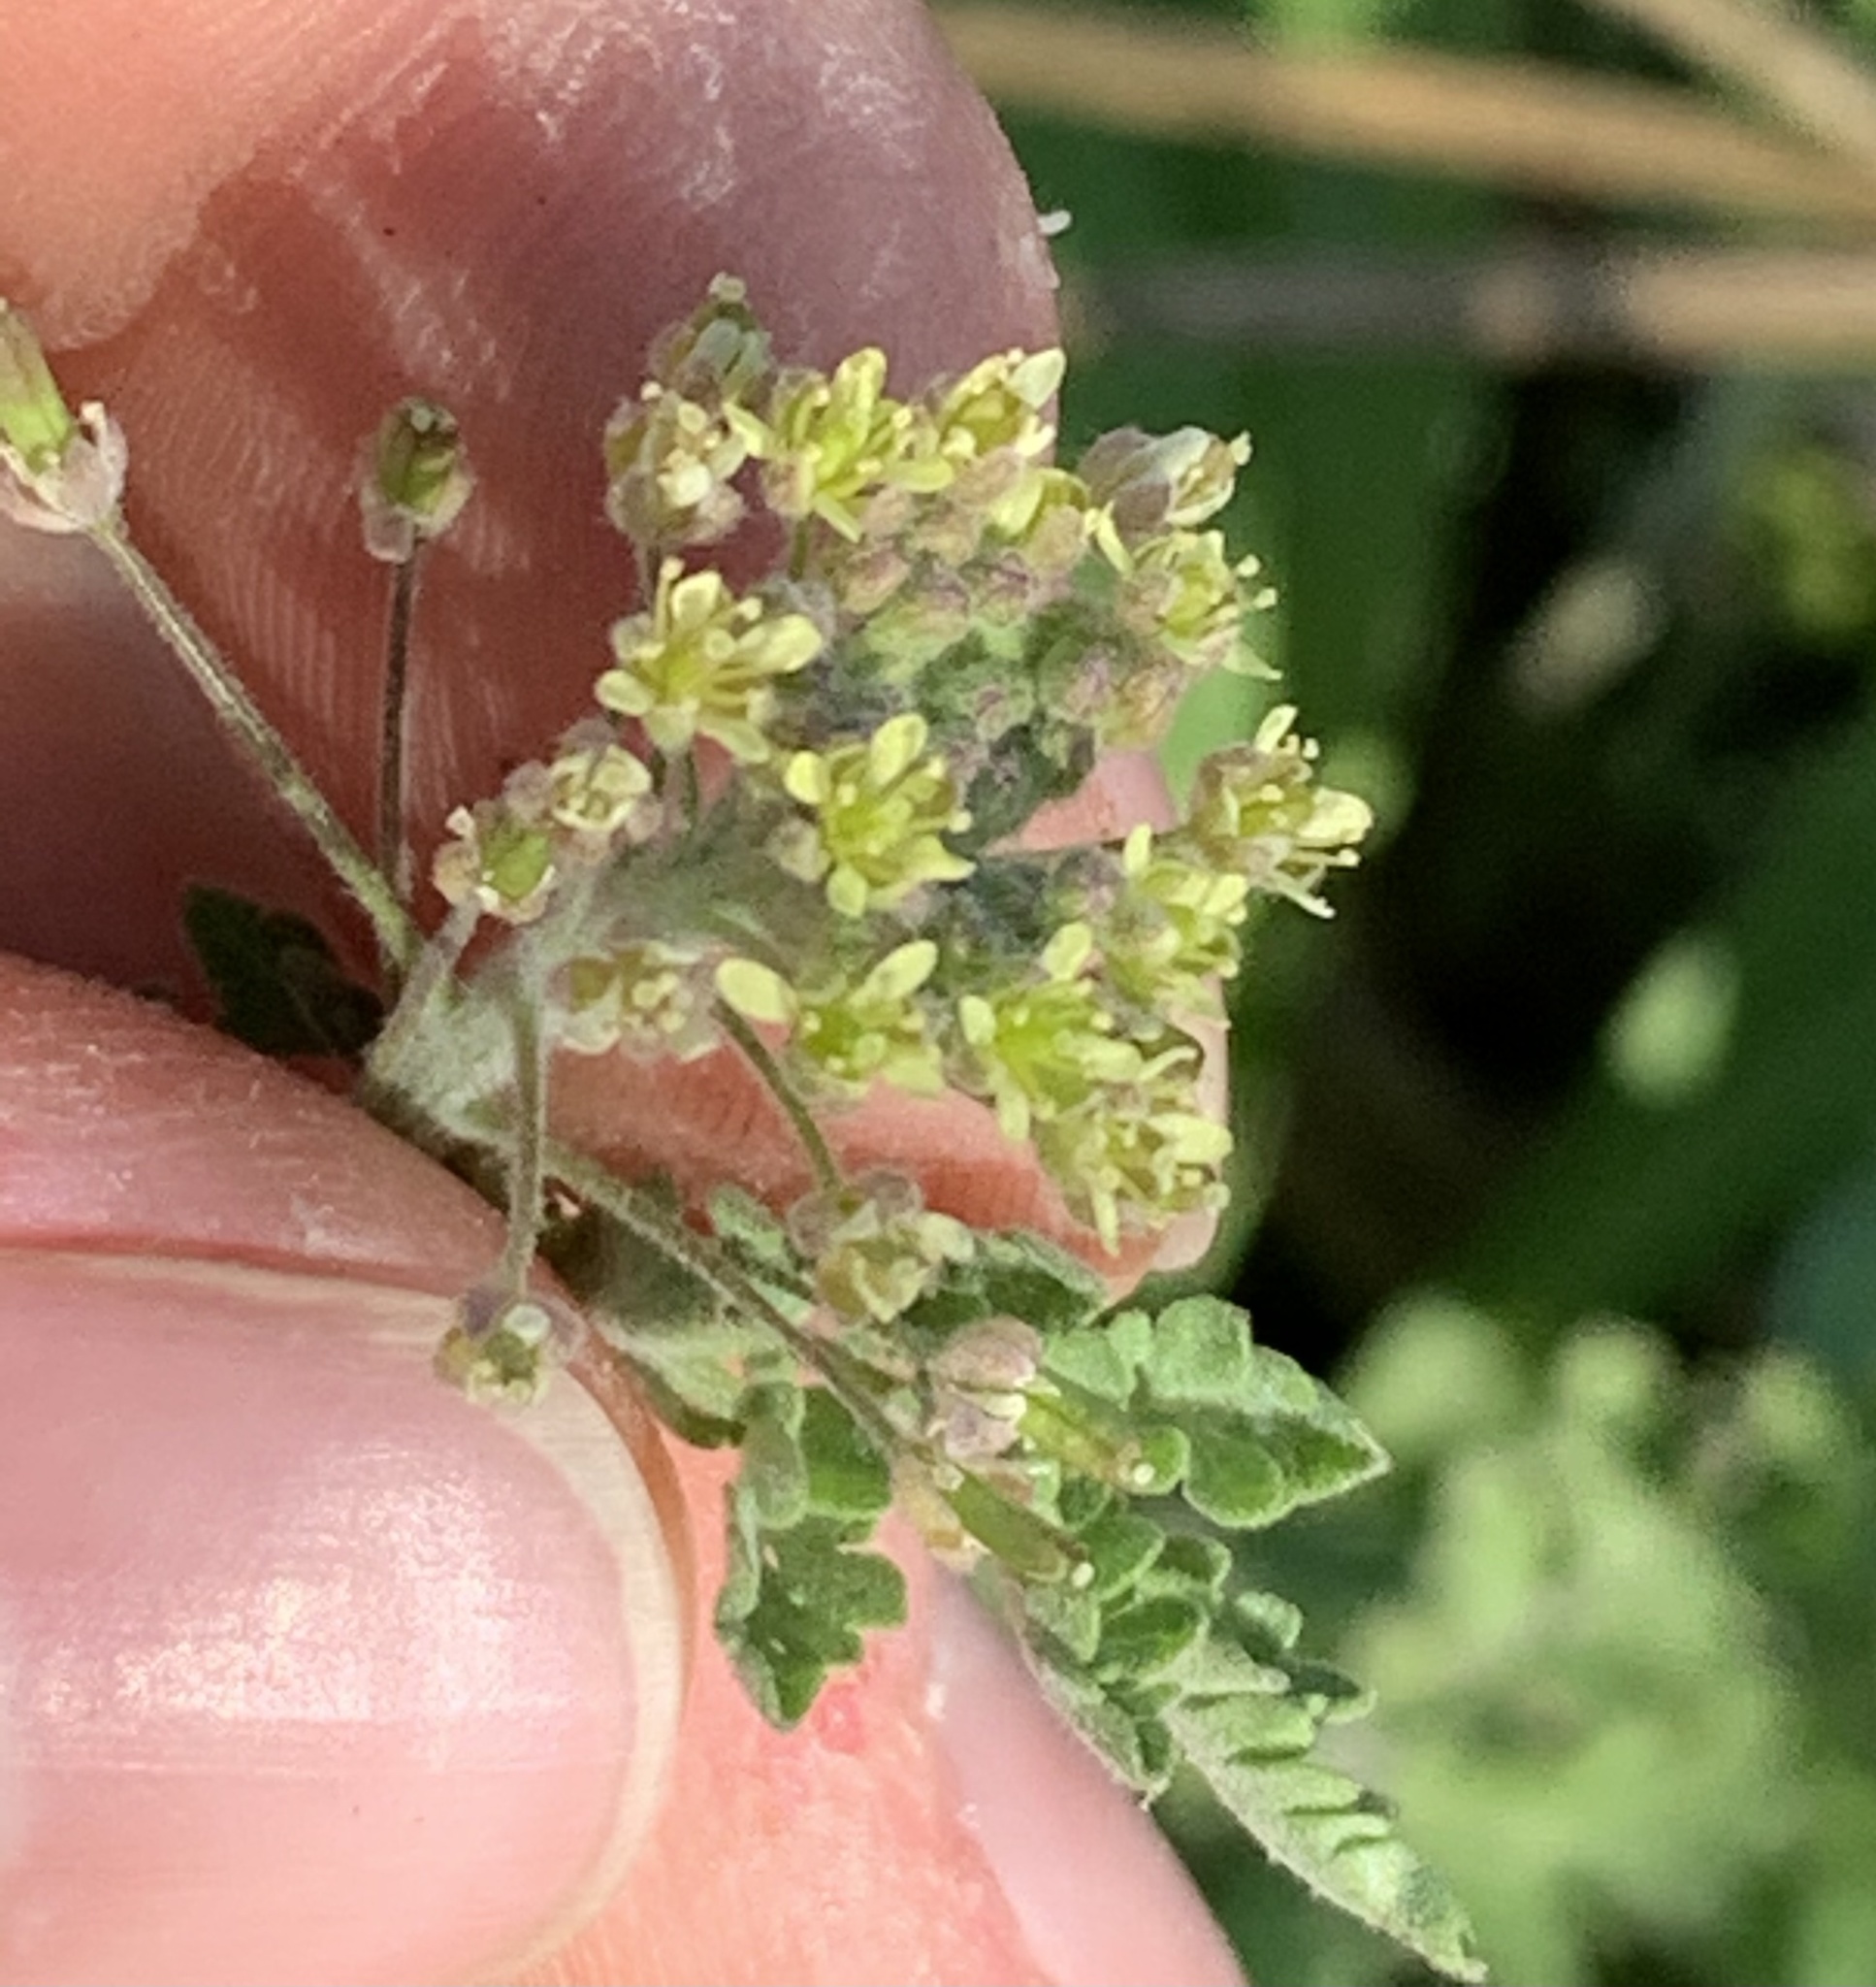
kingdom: Plantae
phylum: Tracheophyta
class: Magnoliopsida
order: Brassicales
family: Brassicaceae
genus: Descurainia
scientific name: Descurainia pinnata
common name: Western tansy mustard
